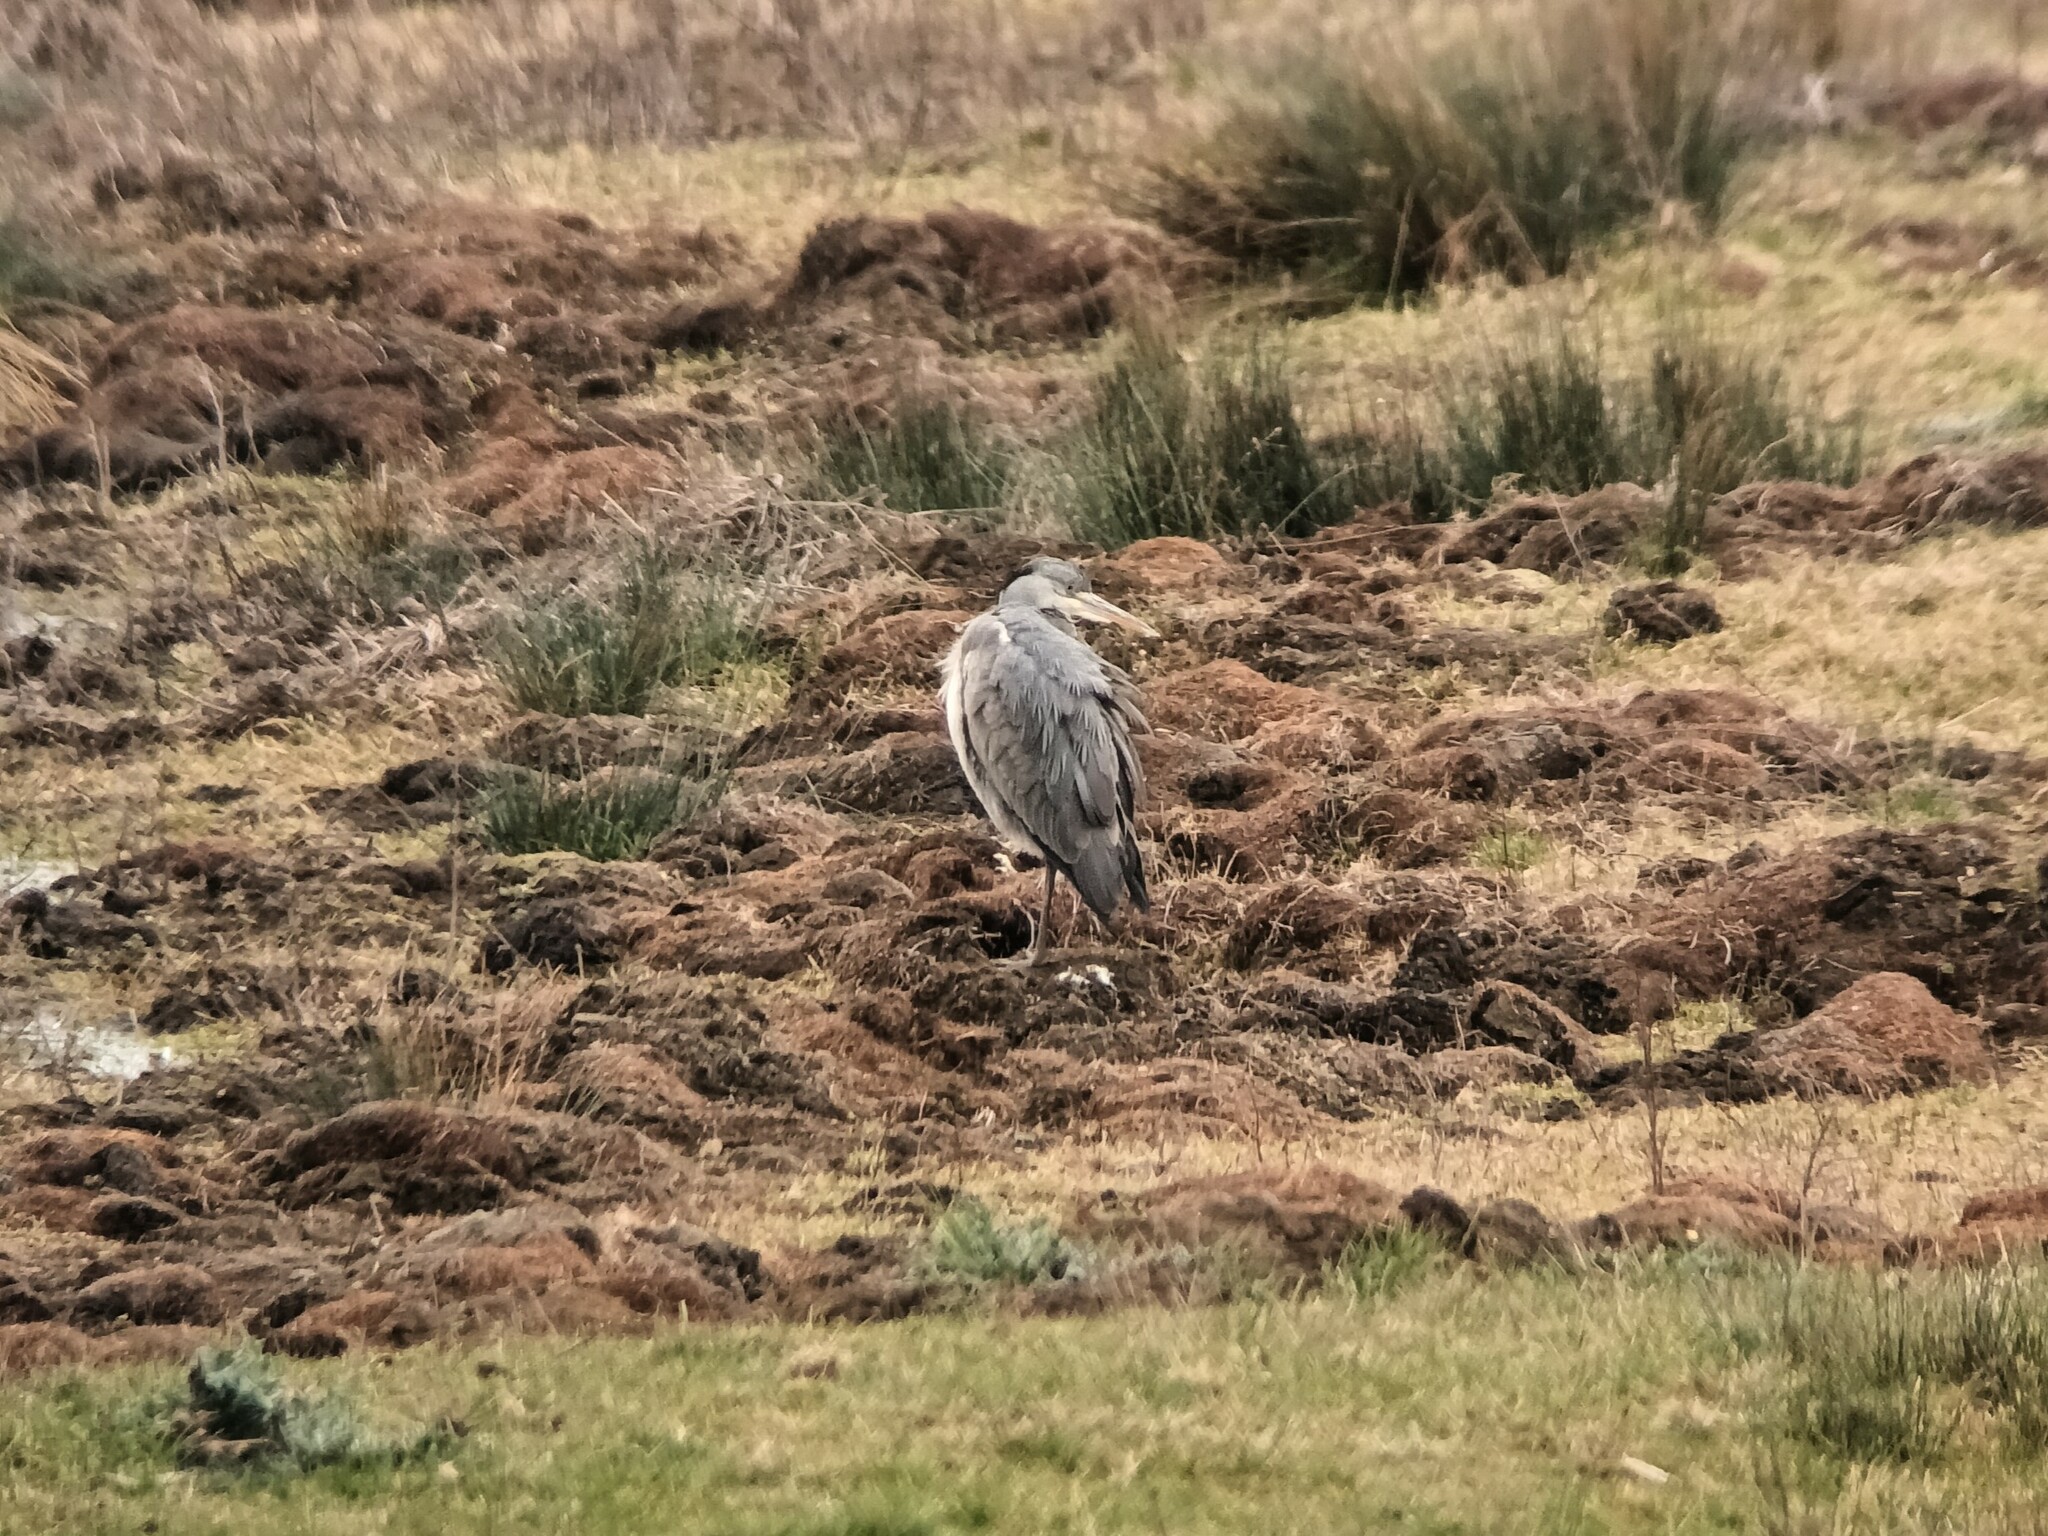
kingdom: Animalia
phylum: Chordata
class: Aves
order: Pelecaniformes
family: Ardeidae
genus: Ardea
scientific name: Ardea cinerea
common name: Grey heron
